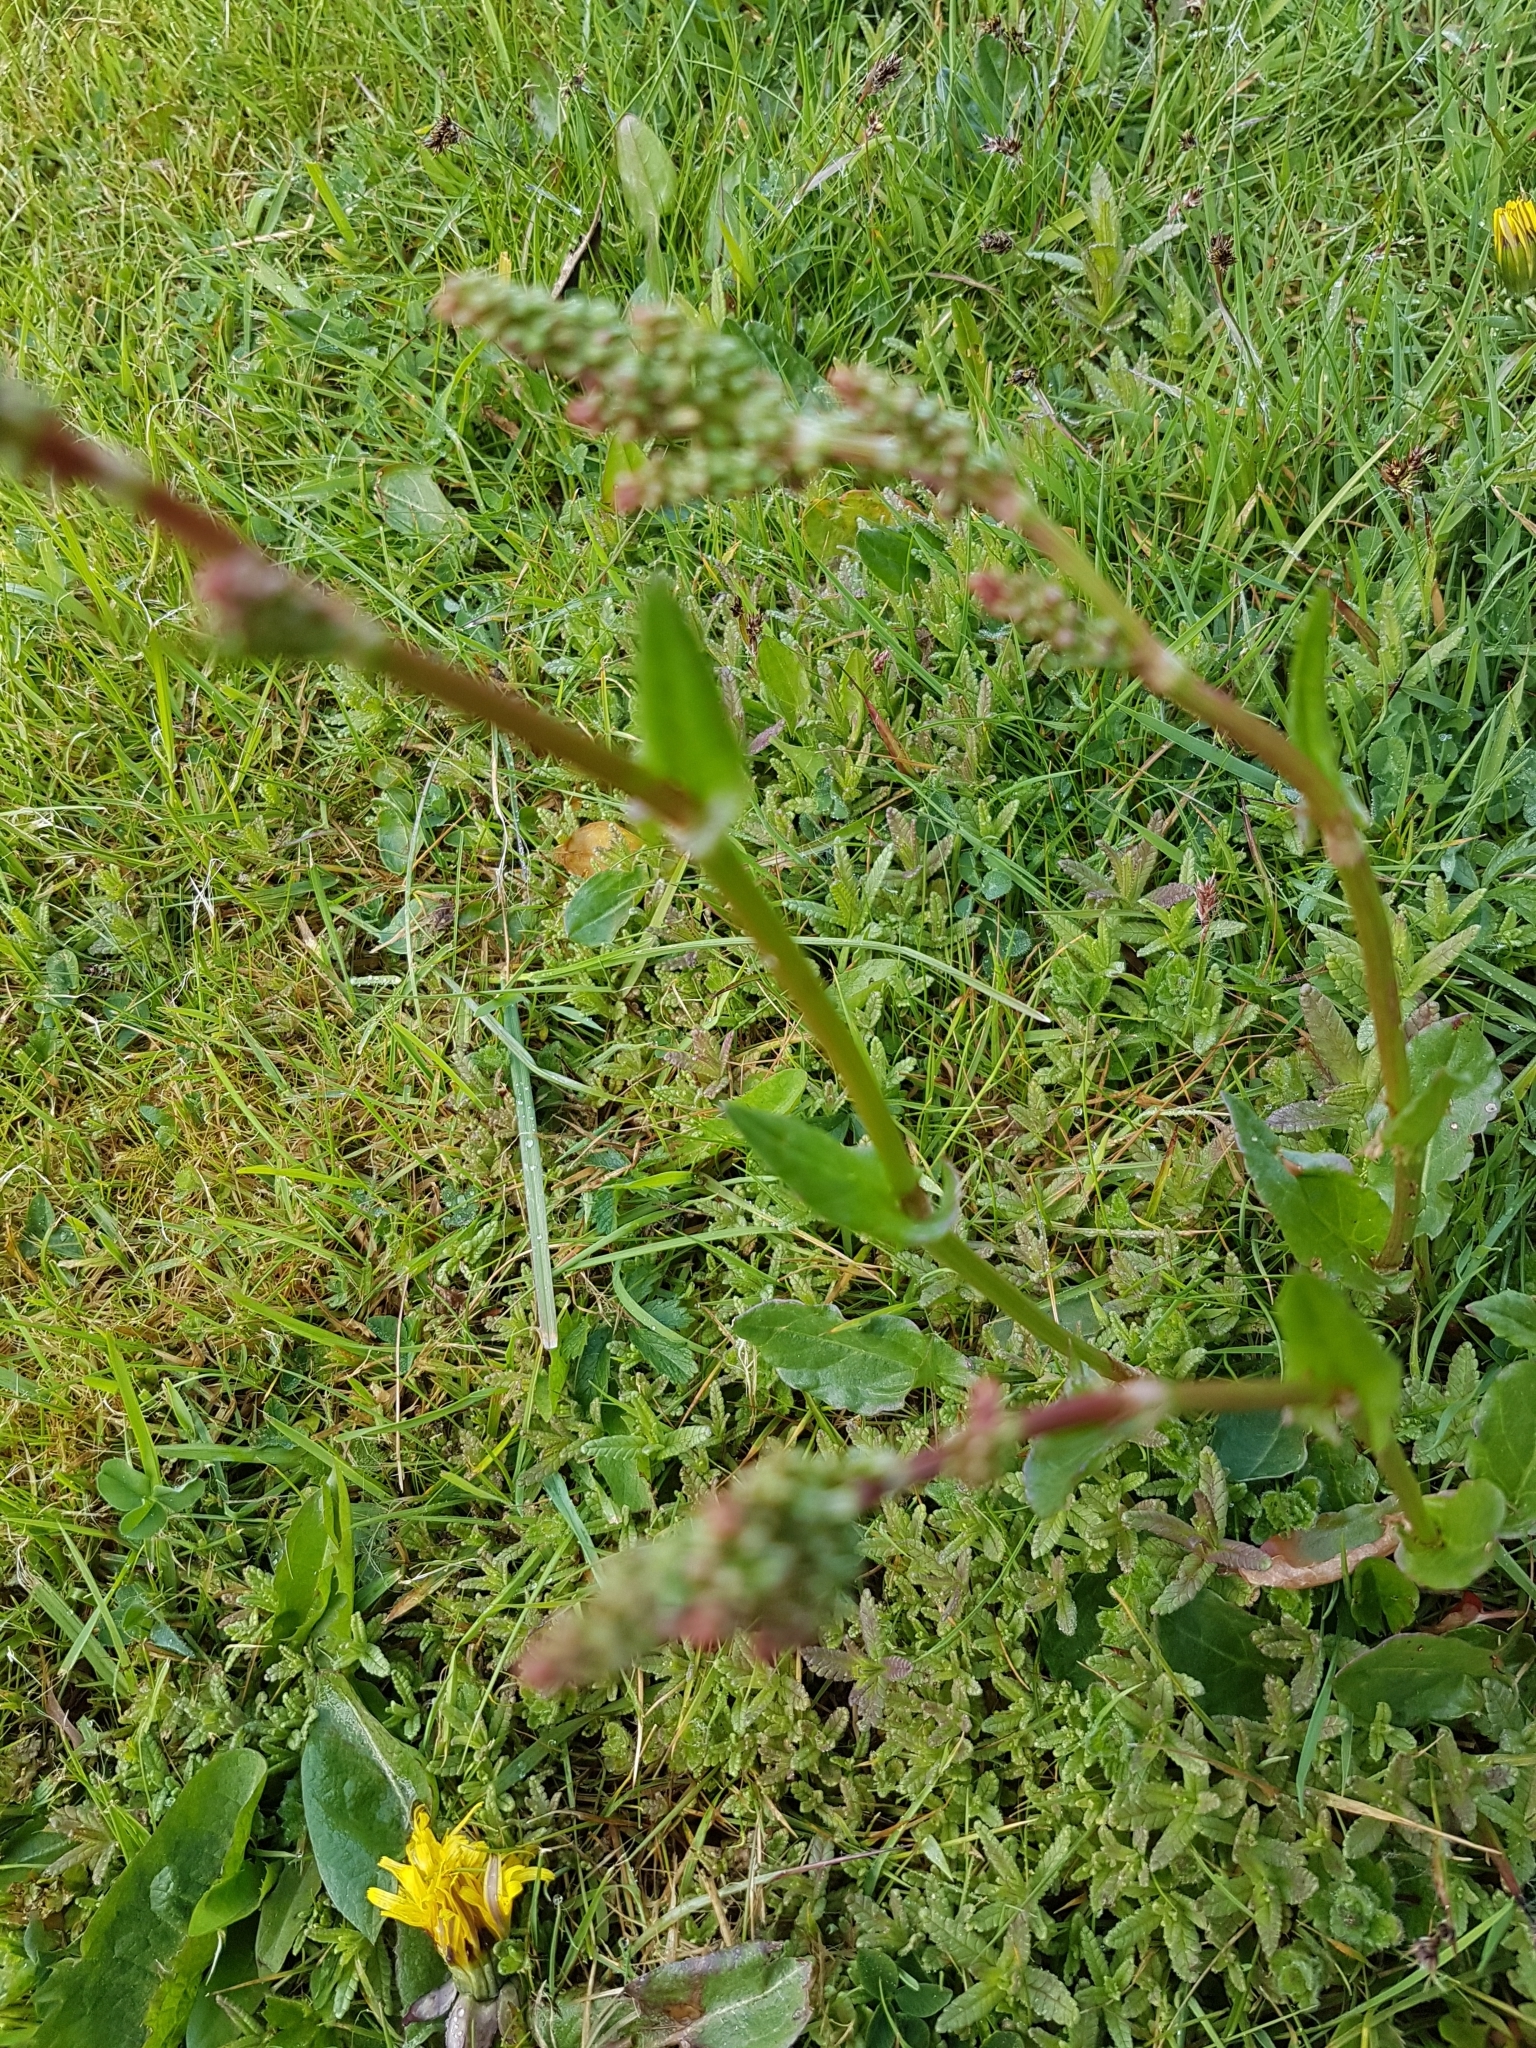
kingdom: Plantae
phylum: Tracheophyta
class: Magnoliopsida
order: Caryophyllales
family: Polygonaceae
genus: Rumex
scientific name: Rumex acetosa
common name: Garden sorrel
